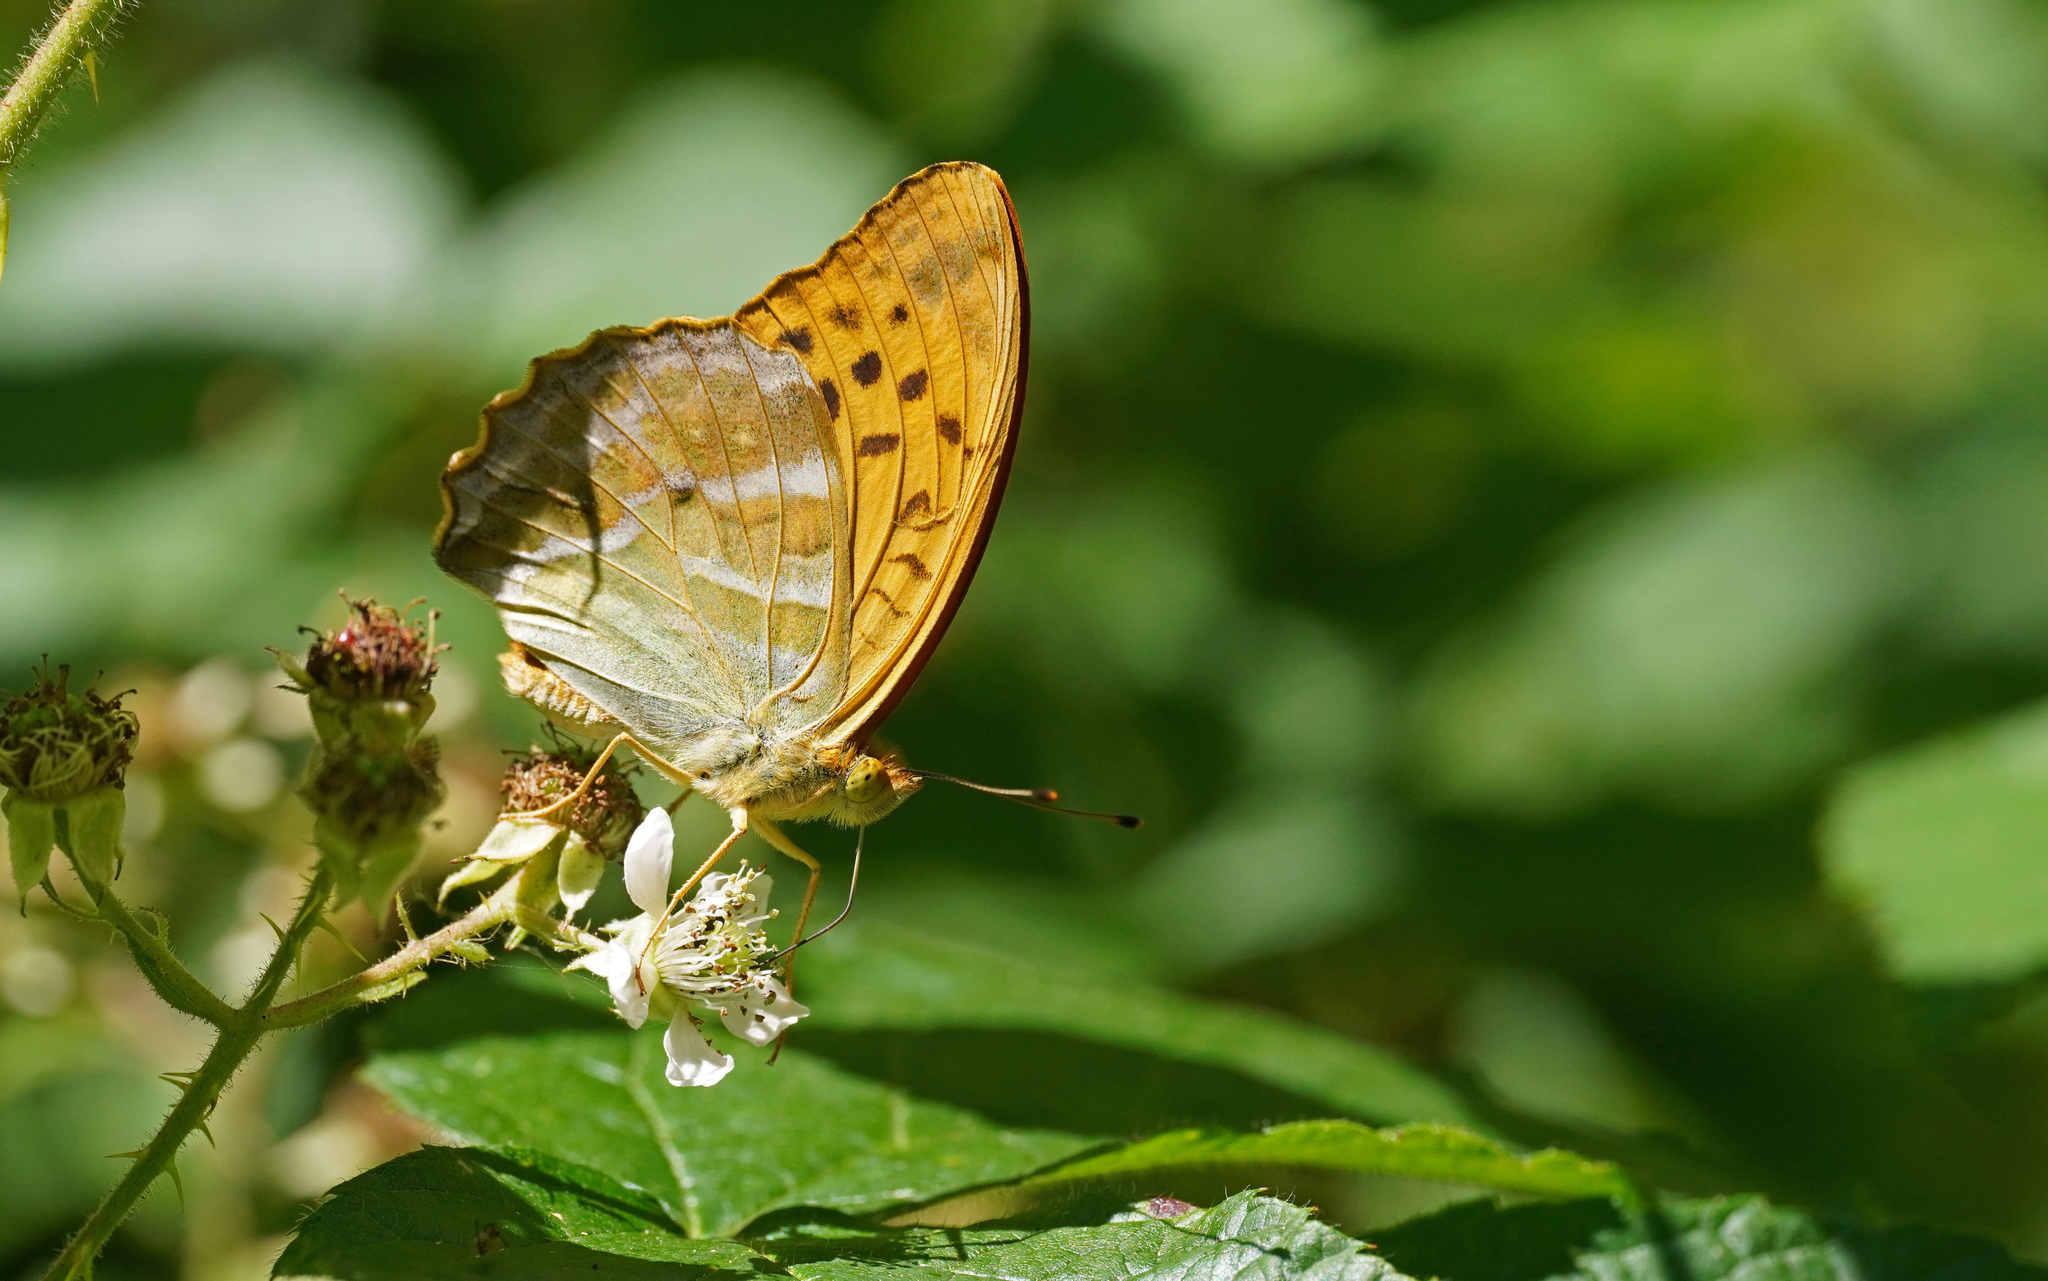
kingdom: Animalia
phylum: Arthropoda
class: Insecta
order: Lepidoptera
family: Nymphalidae
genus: Argynnis
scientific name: Argynnis paphia
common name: Silver-washed fritillary
